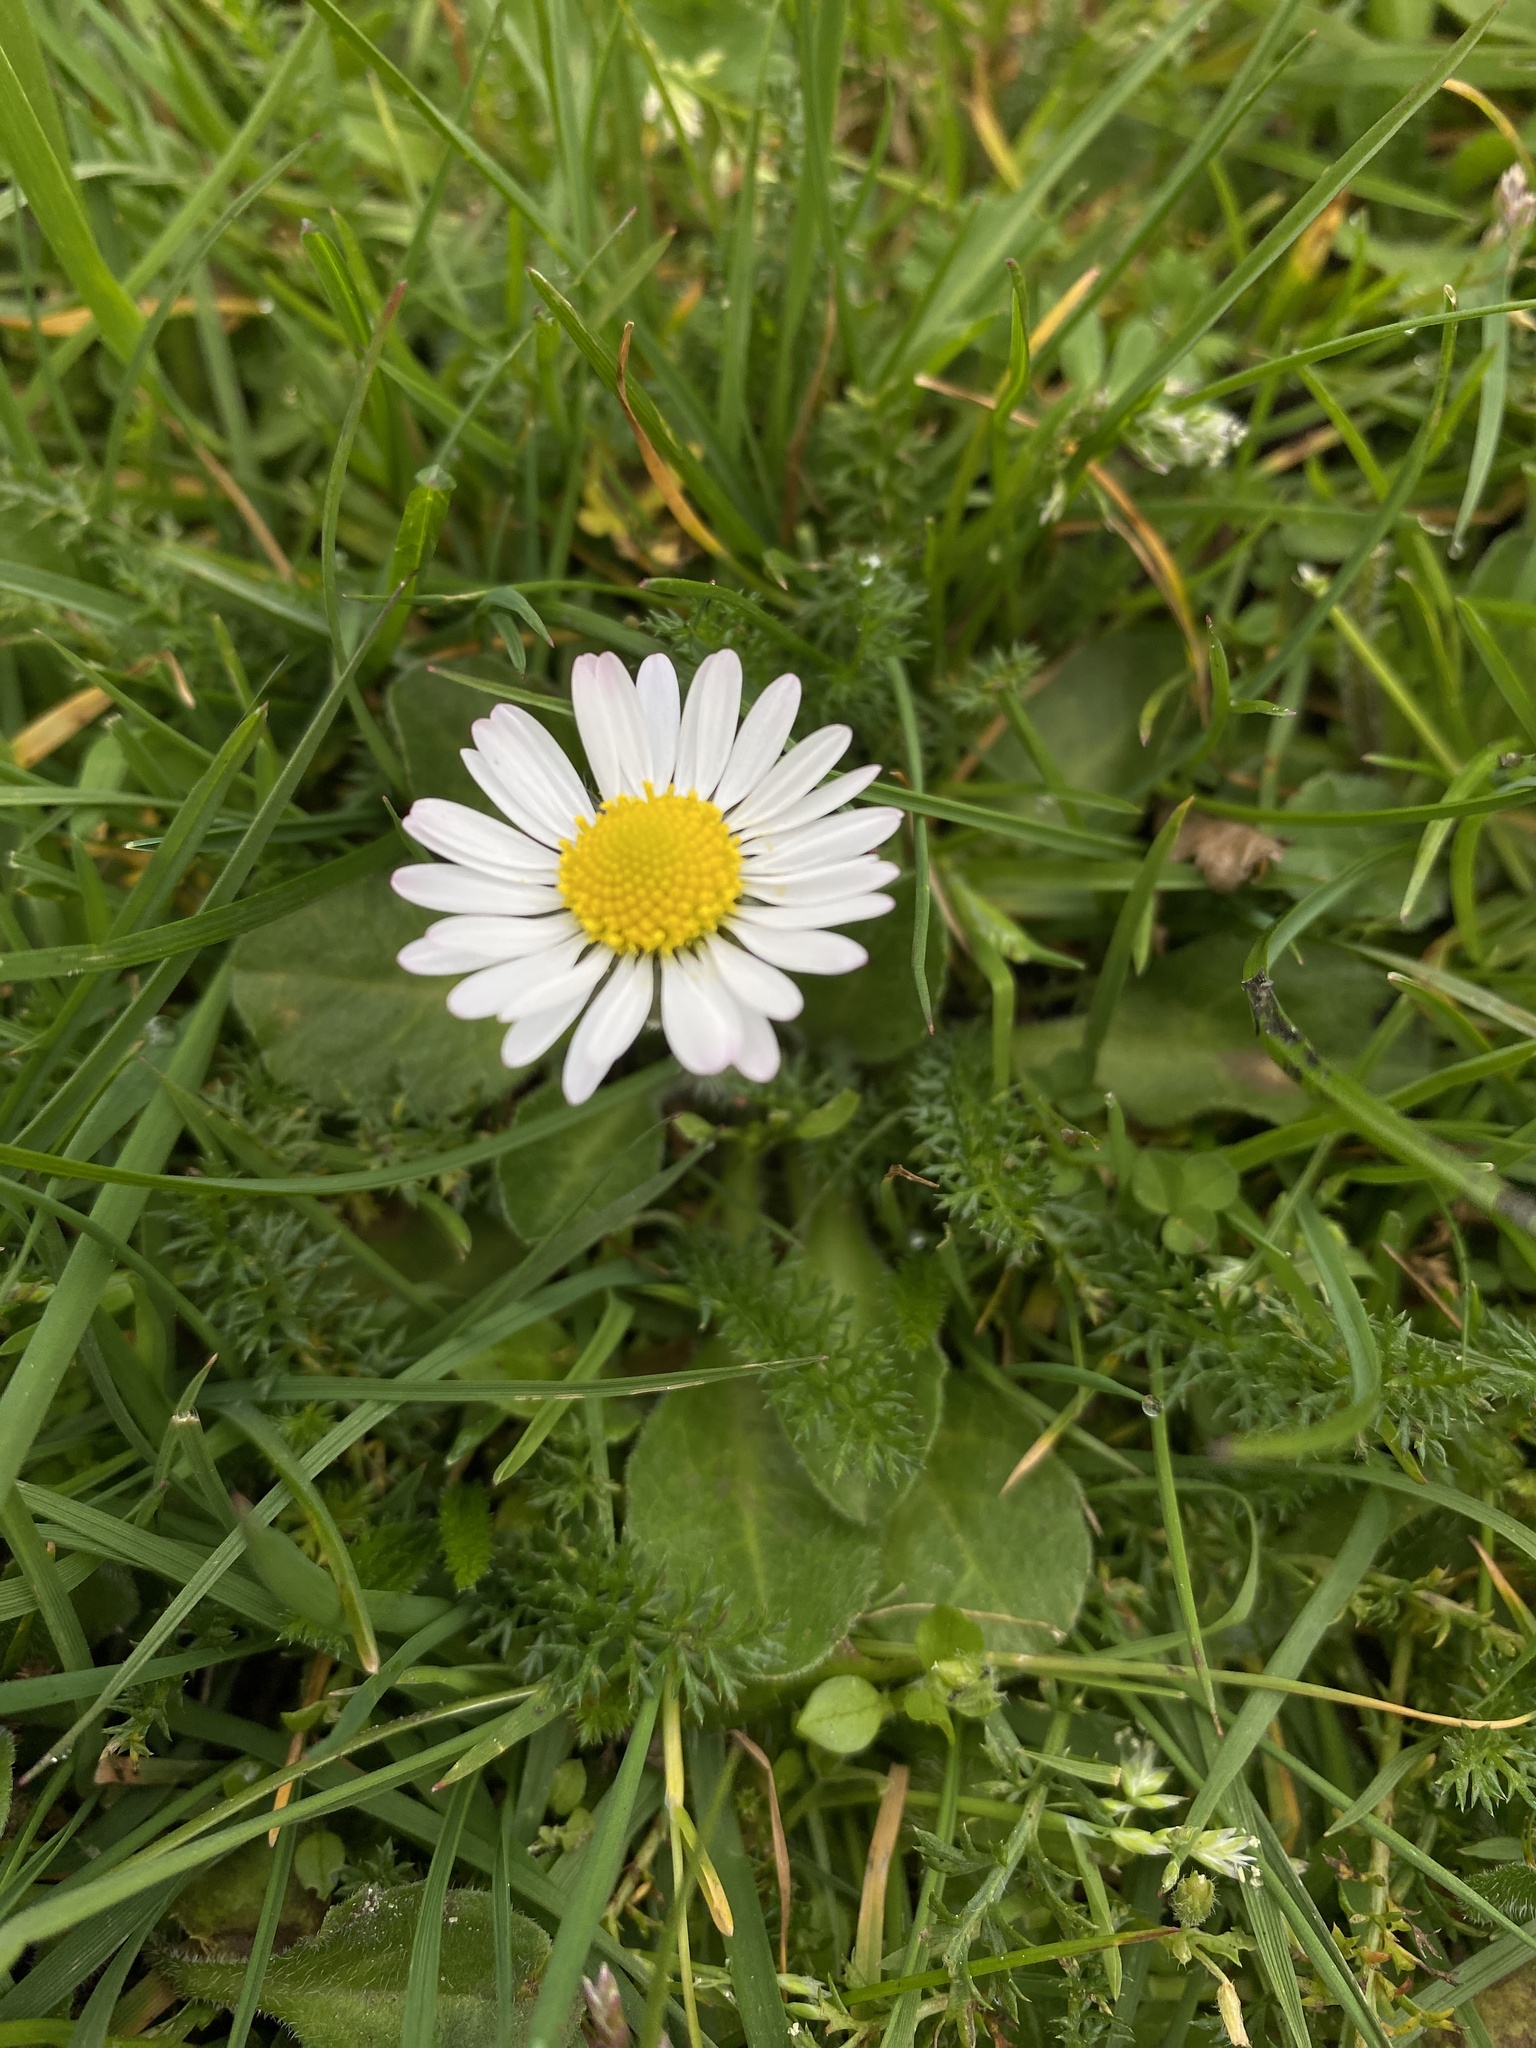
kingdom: Plantae
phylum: Tracheophyta
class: Magnoliopsida
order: Asterales
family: Asteraceae
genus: Bellis
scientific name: Bellis perennis
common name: Lawndaisy
